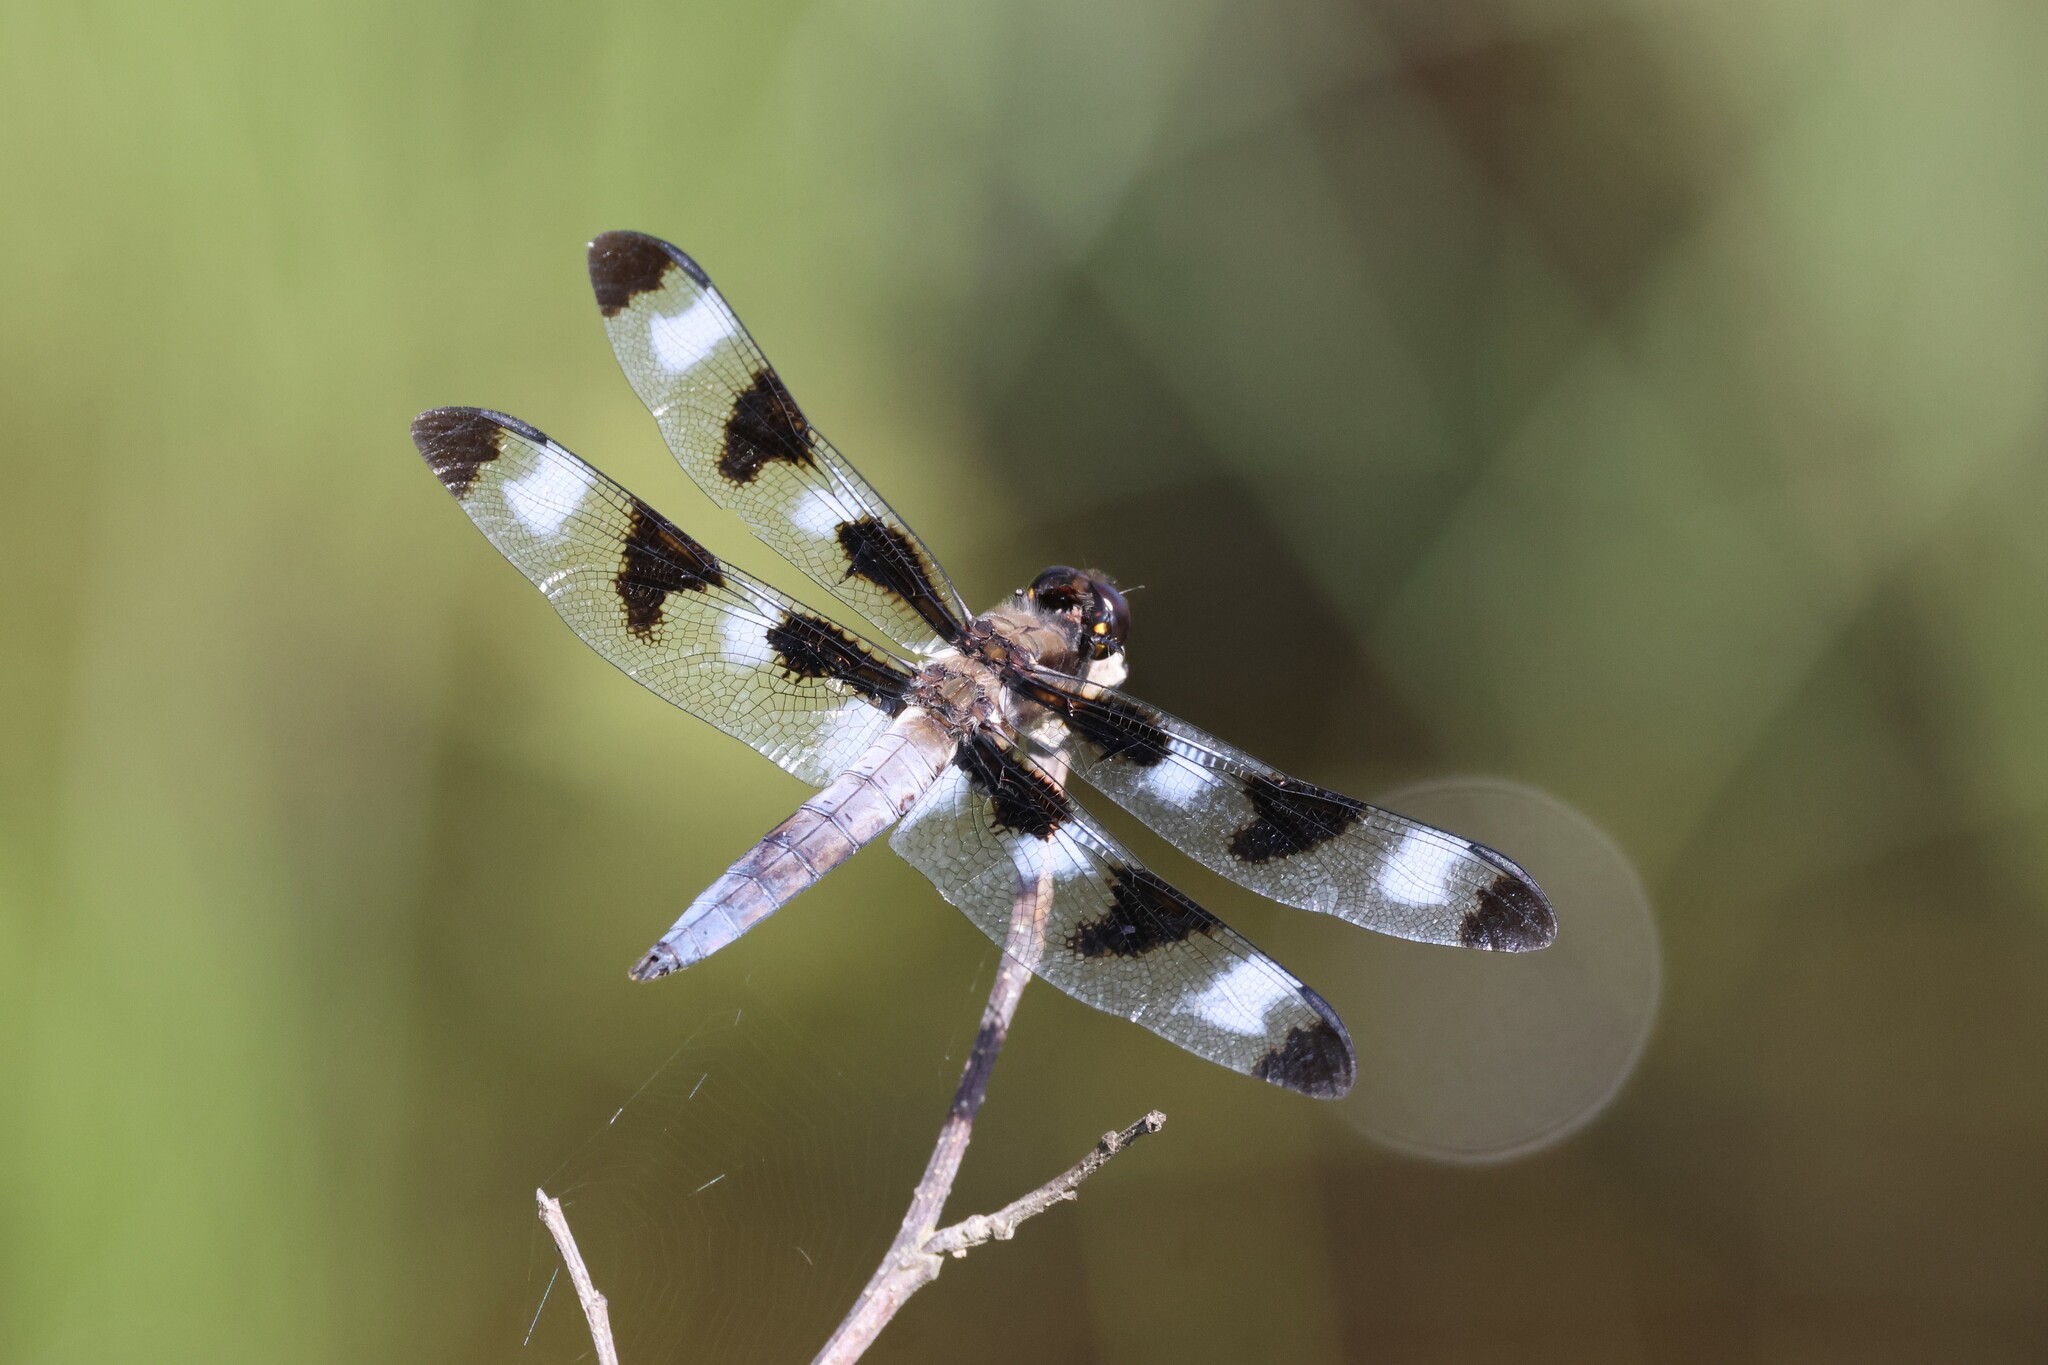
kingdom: Animalia
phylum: Arthropoda
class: Insecta
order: Odonata
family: Libellulidae
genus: Libellula
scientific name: Libellula pulchella
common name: Twelve-spotted skimmer
